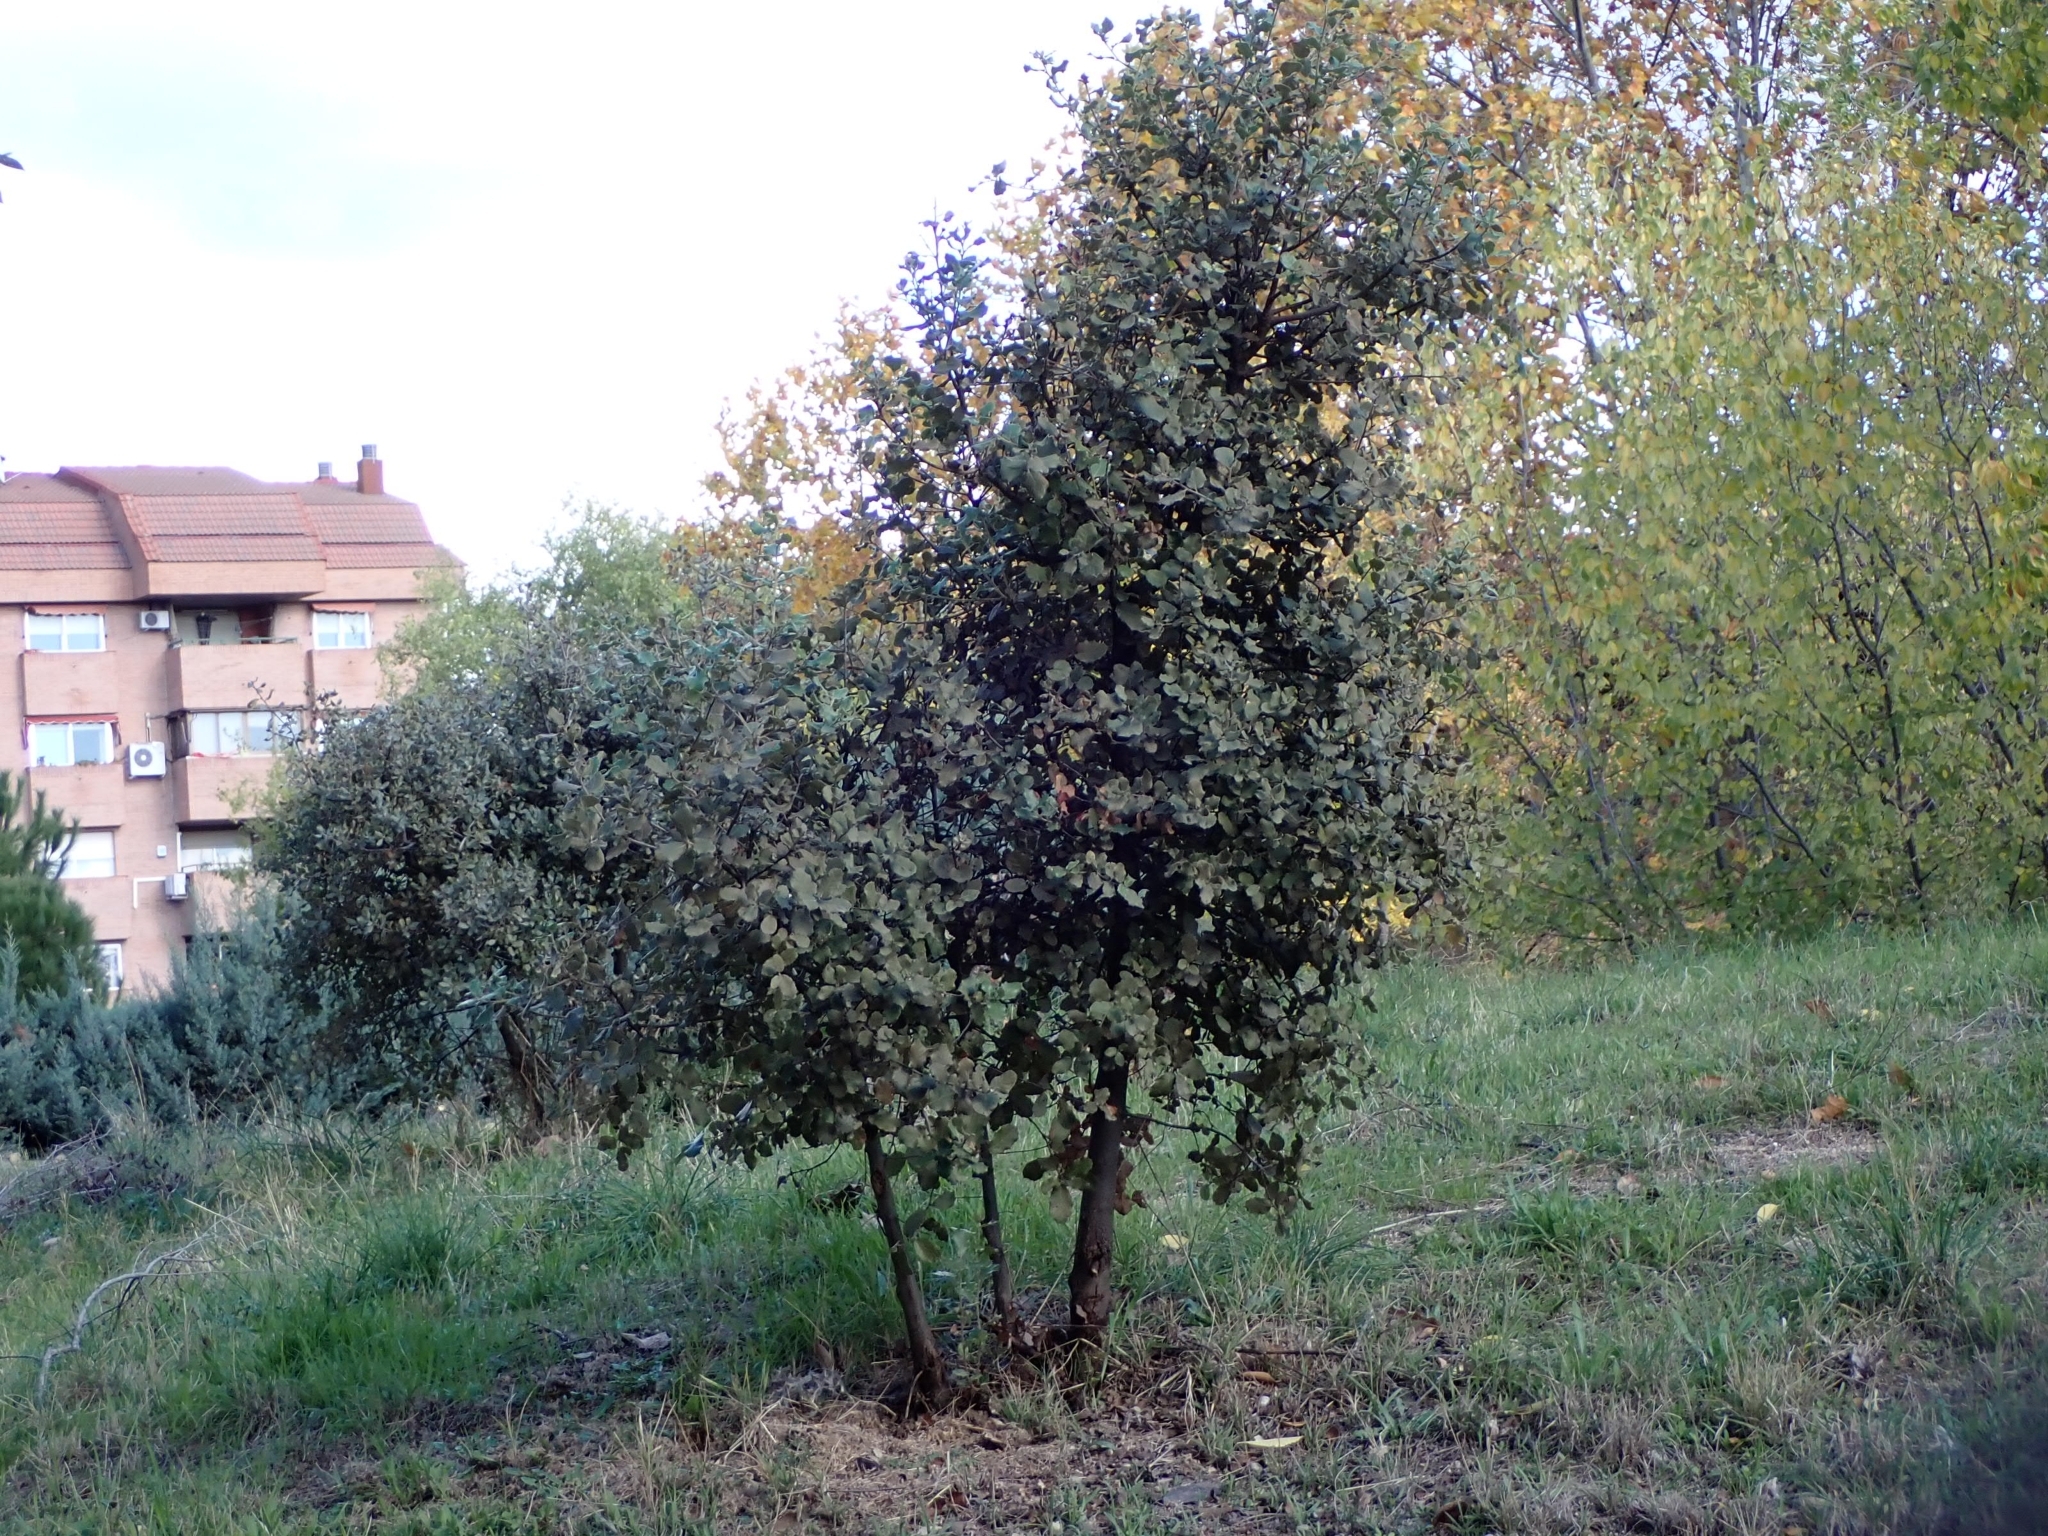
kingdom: Plantae
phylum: Tracheophyta
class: Magnoliopsida
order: Fagales
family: Fagaceae
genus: Quercus
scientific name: Quercus rotundifolia
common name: Holm oak
